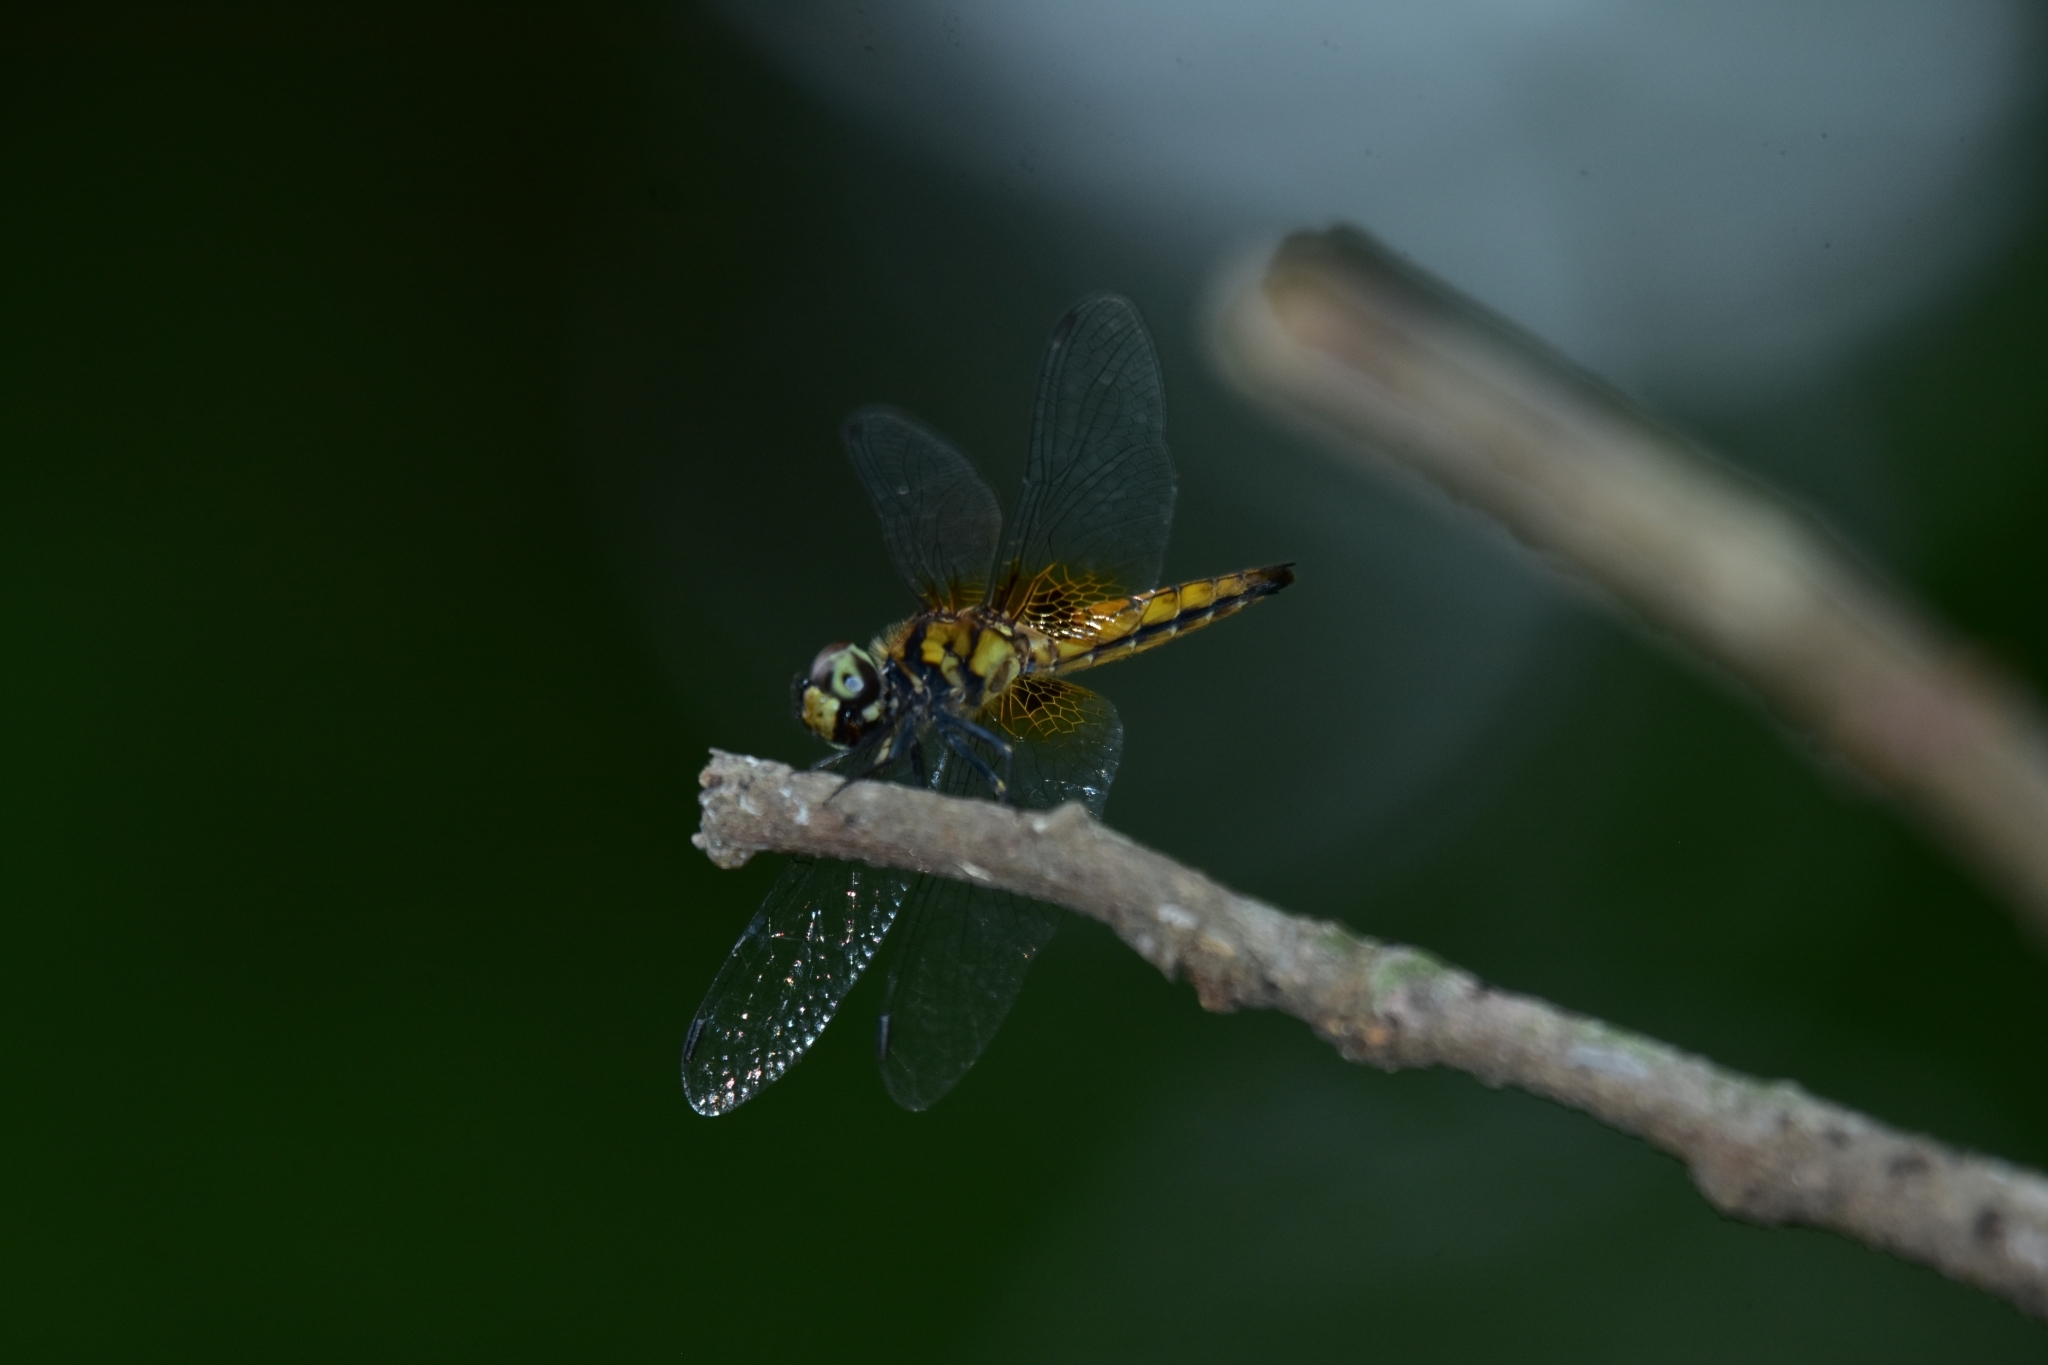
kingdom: Animalia
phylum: Arthropoda
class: Insecta
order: Odonata
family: Libellulidae
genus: Aethriamanta
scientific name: Aethriamanta brevipennis
